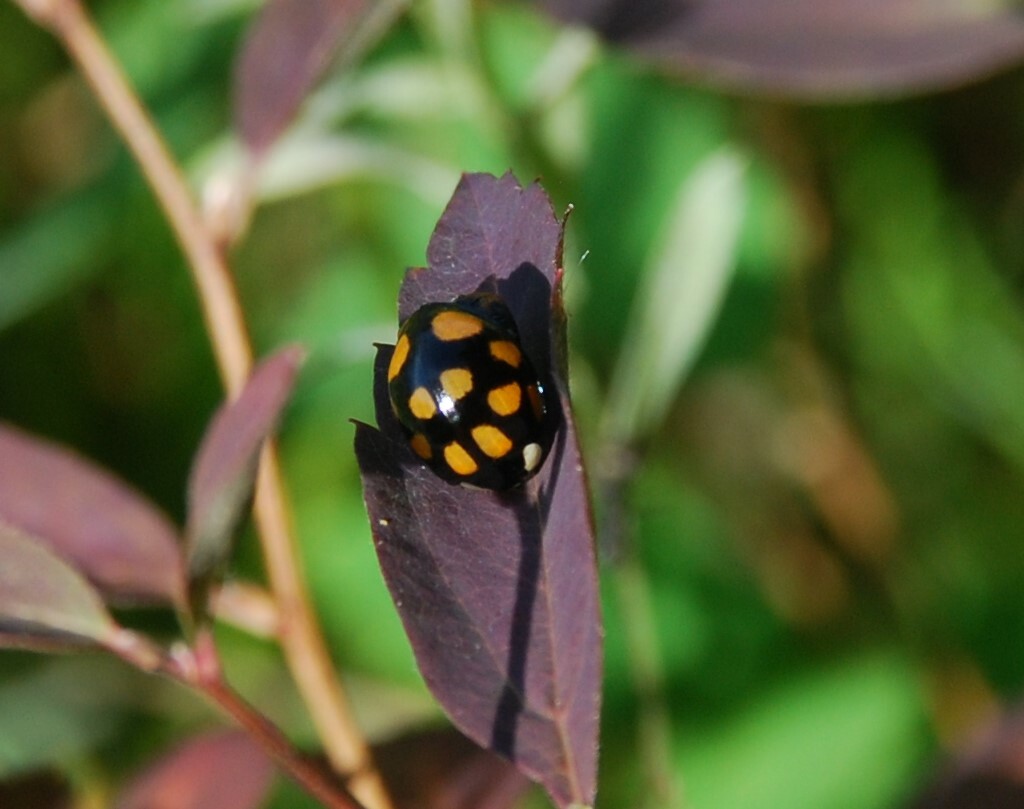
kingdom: Animalia
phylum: Arthropoda
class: Insecta
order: Coleoptera
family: Coccinellidae
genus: Harmonia
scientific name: Harmonia axyridis
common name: Harlequin ladybird
